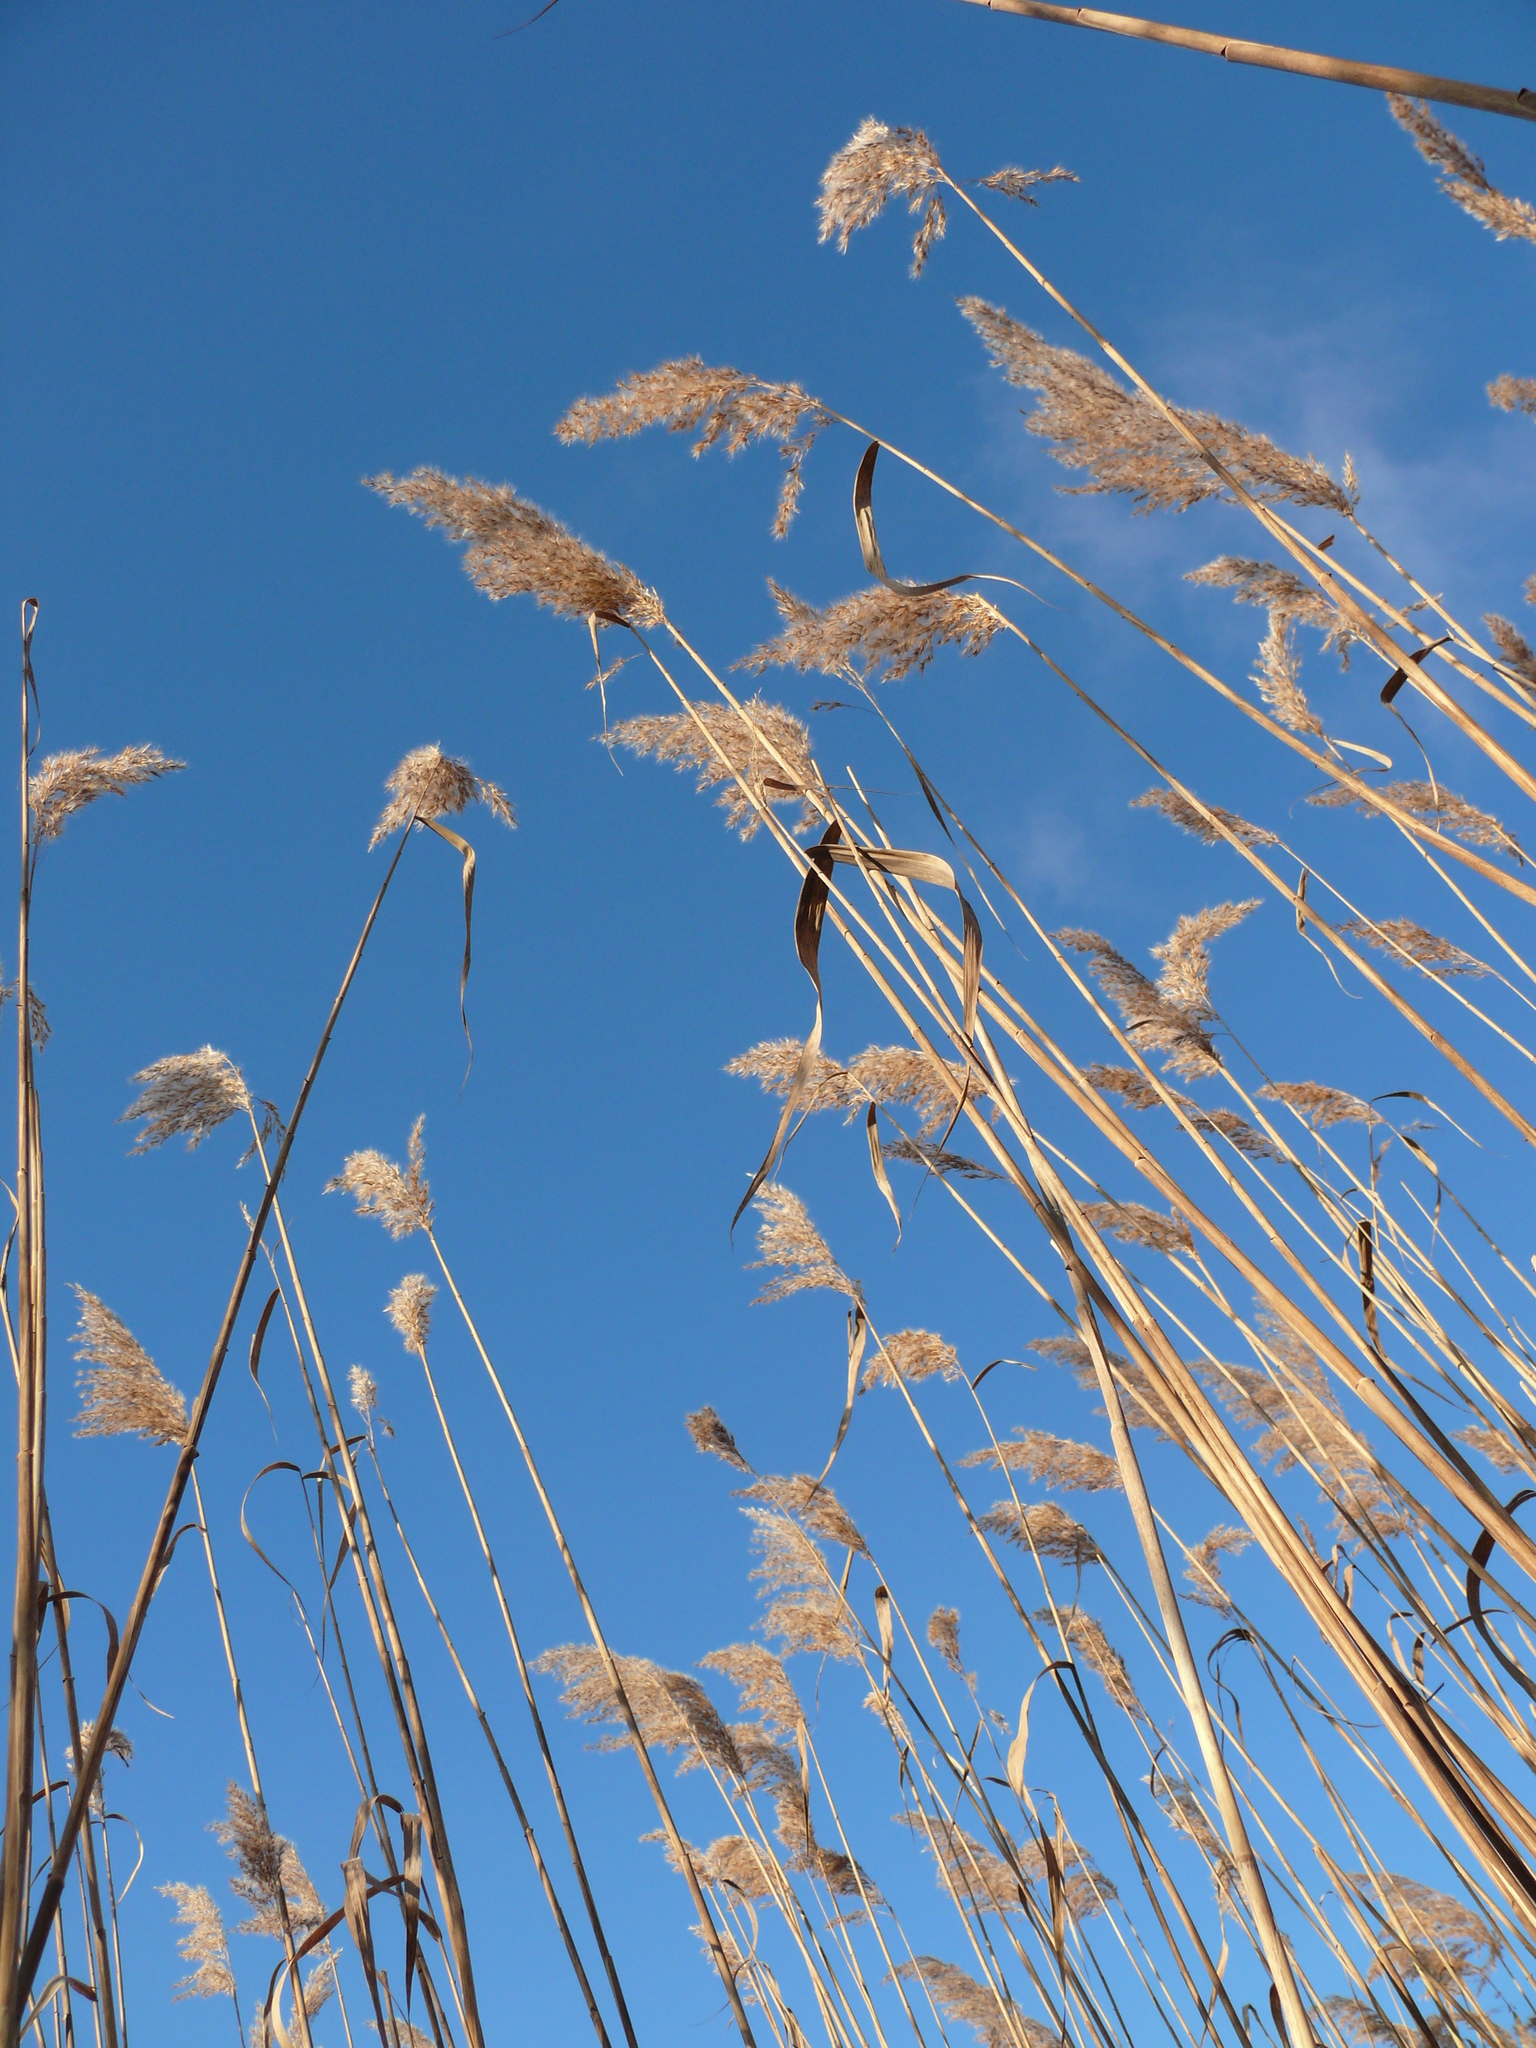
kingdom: Plantae
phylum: Tracheophyta
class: Liliopsida
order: Poales
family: Poaceae
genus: Phragmites
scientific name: Phragmites australis
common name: Common reed
